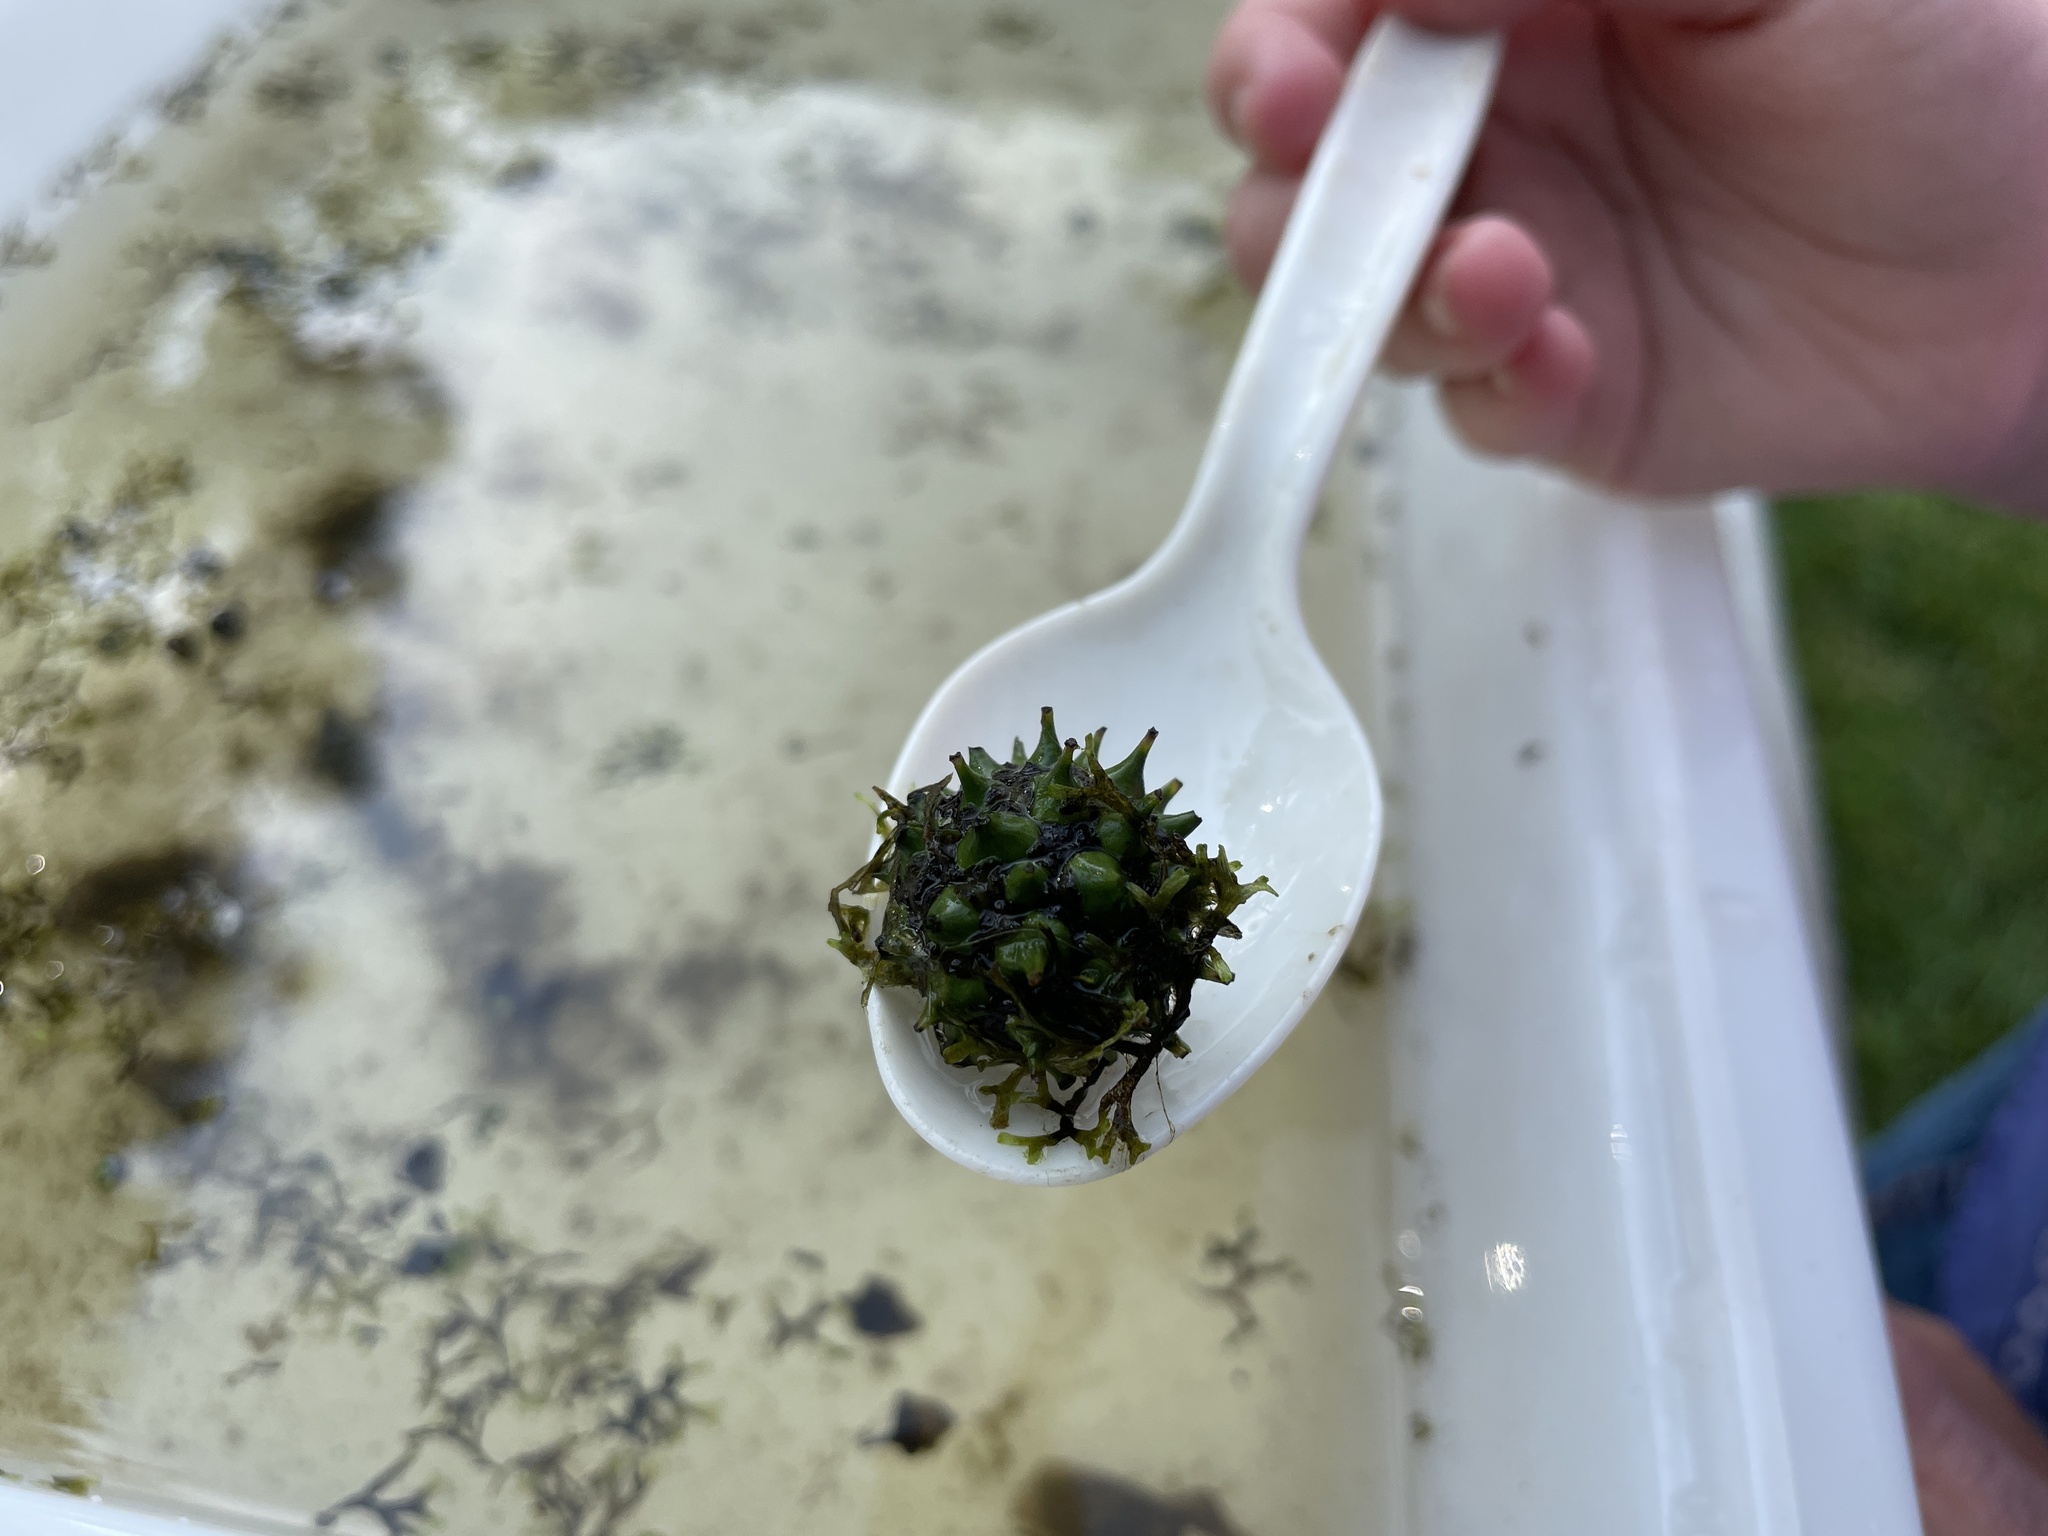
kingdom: Plantae
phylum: Marchantiophyta
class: Marchantiopsida
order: Marchantiales
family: Ricciaceae
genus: Riccia
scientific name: Riccia fluitans
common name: Floating crystalwort
